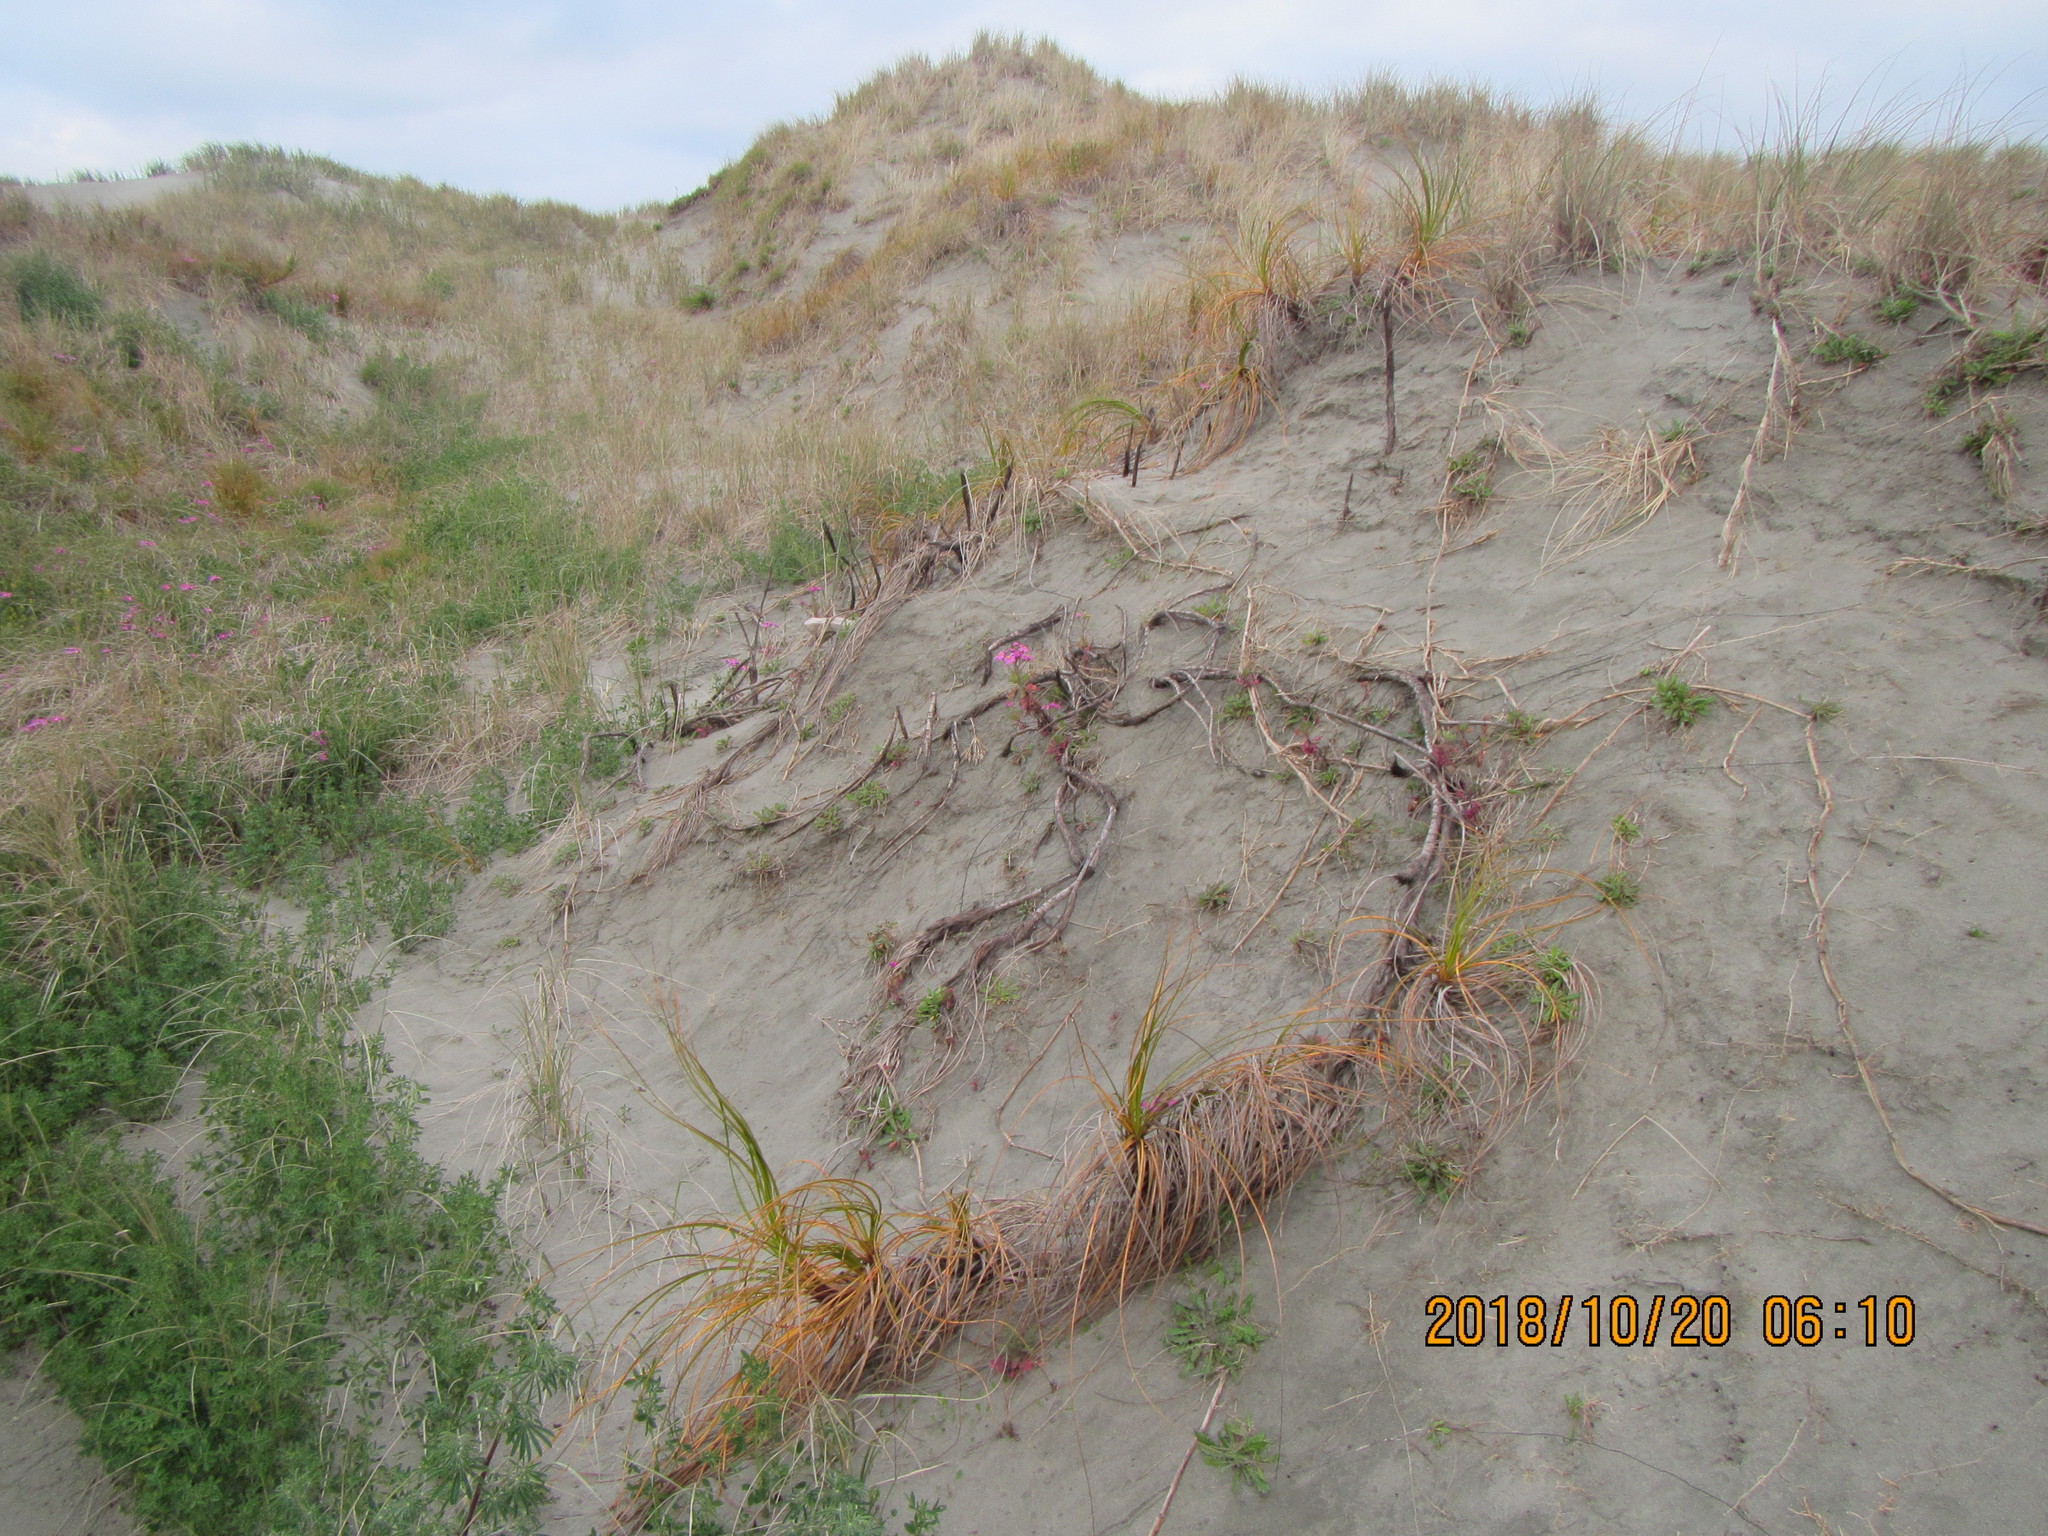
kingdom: Plantae
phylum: Tracheophyta
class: Liliopsida
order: Poales
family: Cyperaceae
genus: Ficinia
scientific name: Ficinia spiralis
